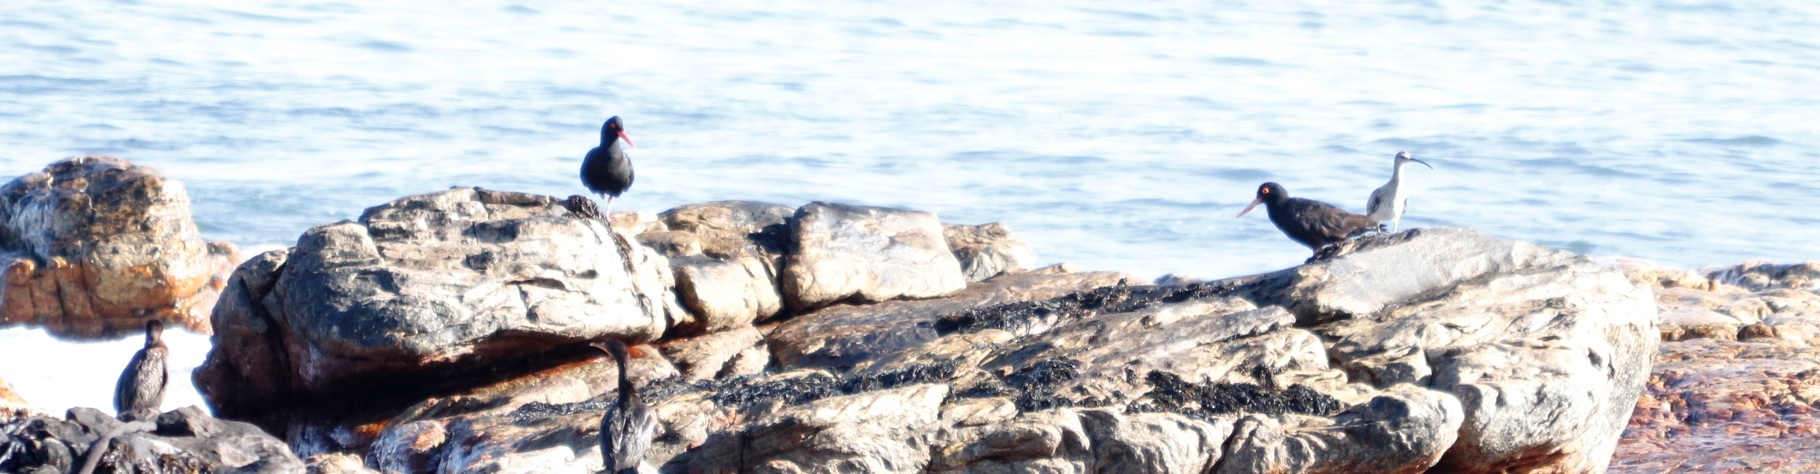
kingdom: Animalia
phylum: Chordata
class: Aves
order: Charadriiformes
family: Haematopodidae
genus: Haematopus
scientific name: Haematopus moquini
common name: African oystercatcher
